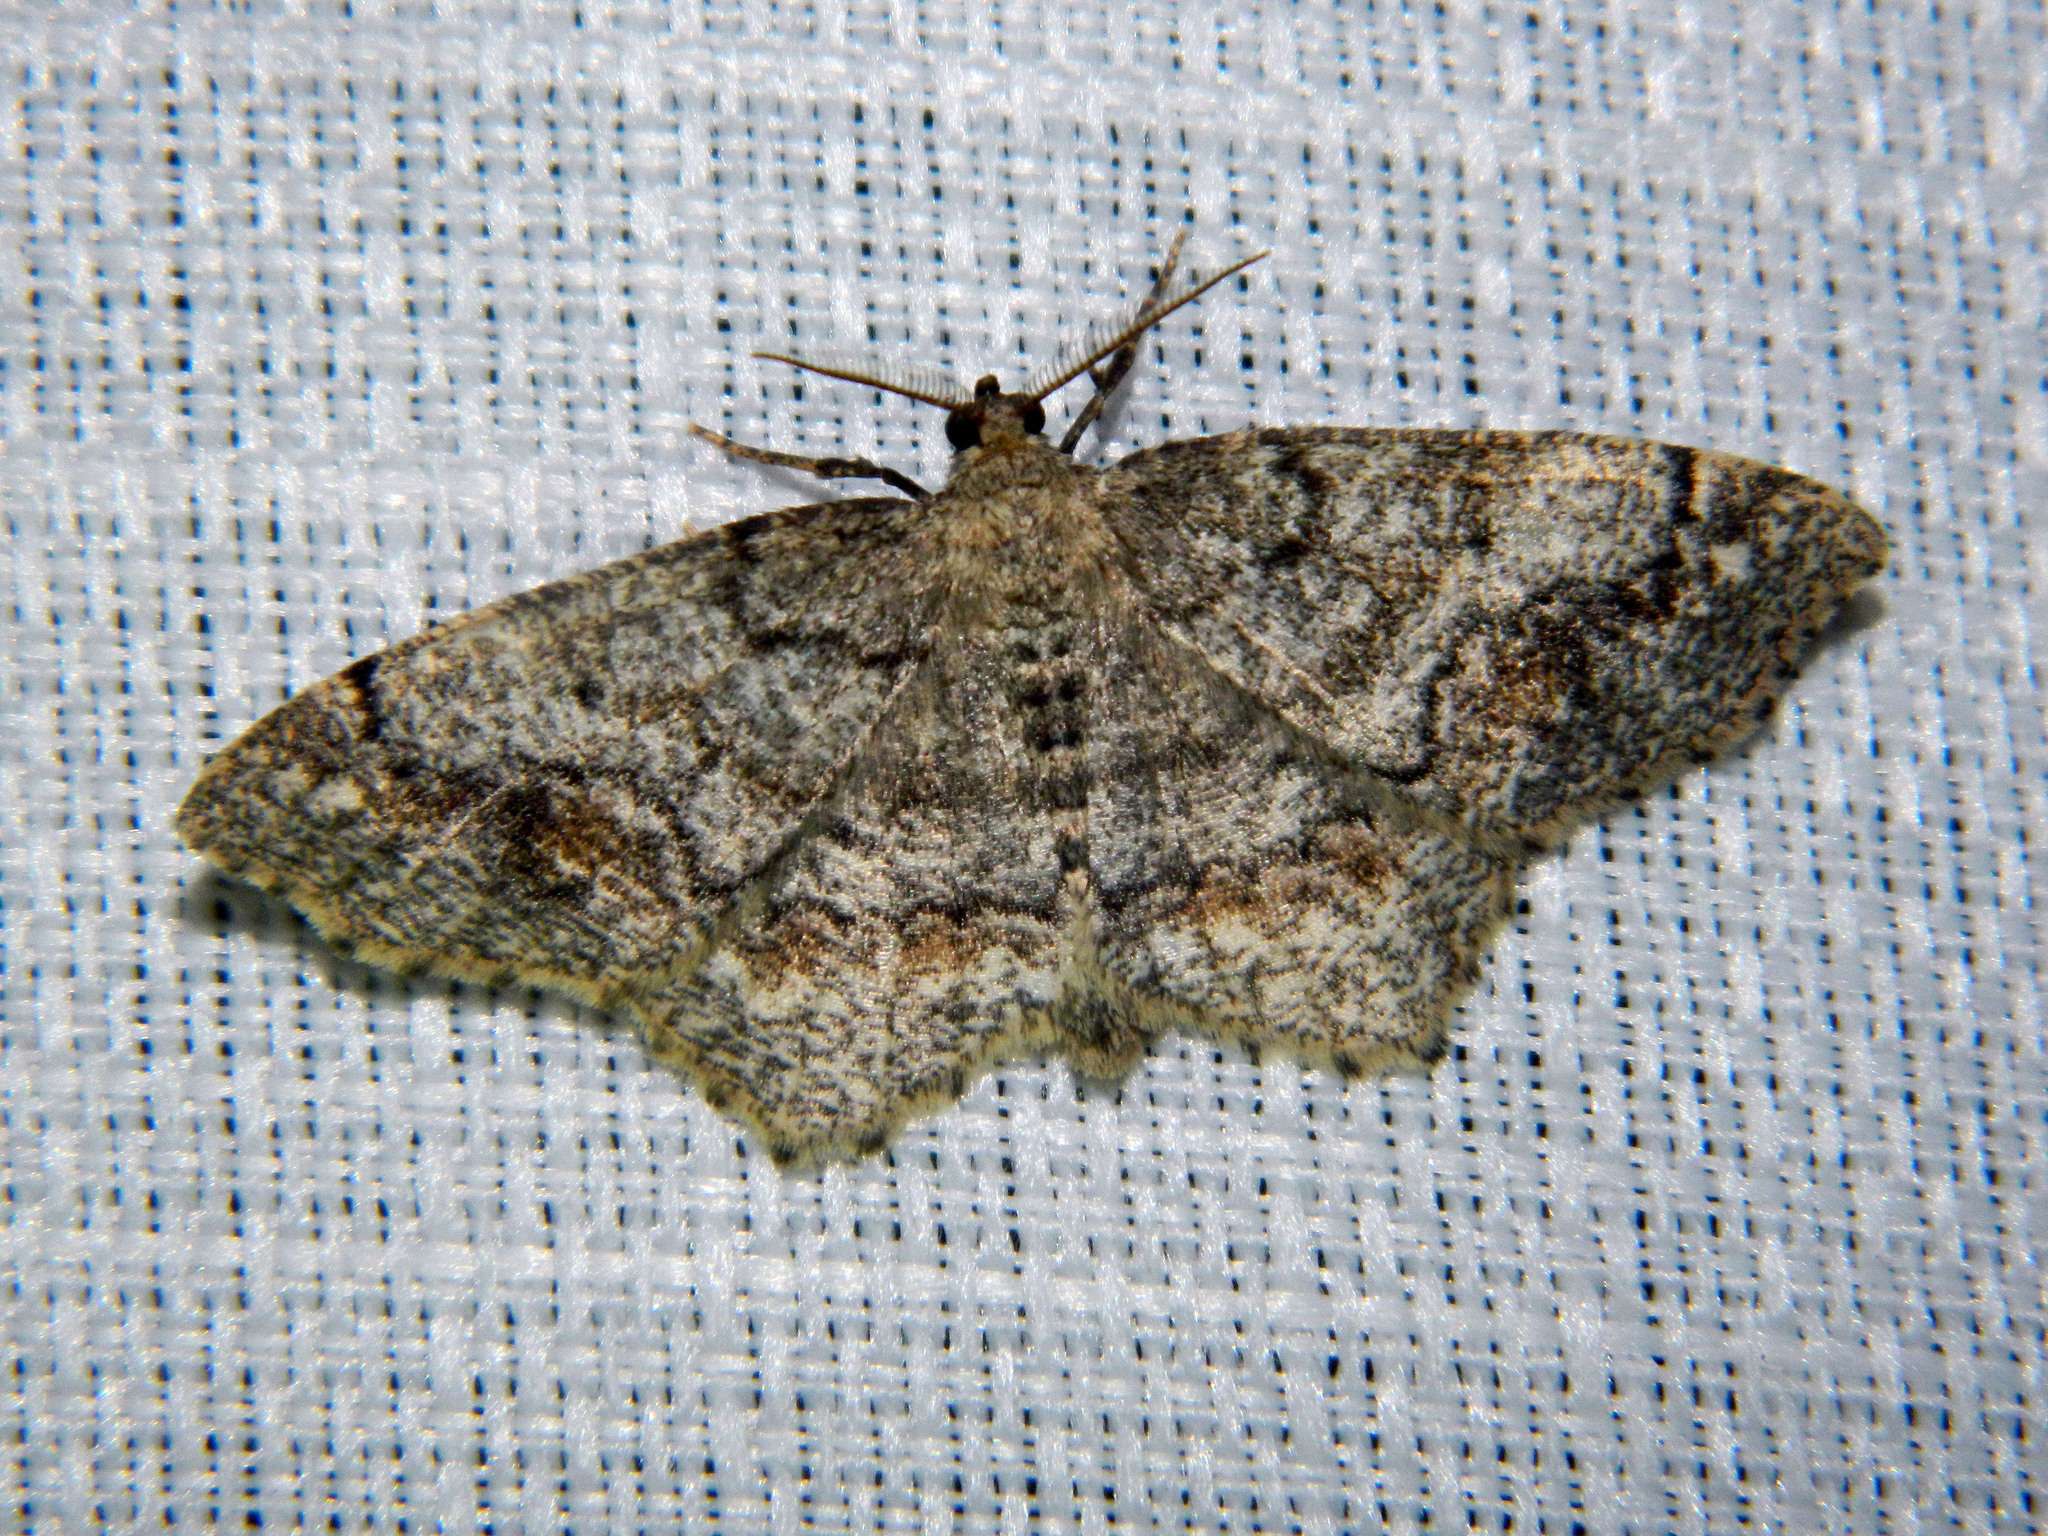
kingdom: Animalia
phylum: Arthropoda
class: Insecta
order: Lepidoptera
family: Geometridae
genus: Hypagyrtis
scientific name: Hypagyrtis unipunctata
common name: One-spotted variant
